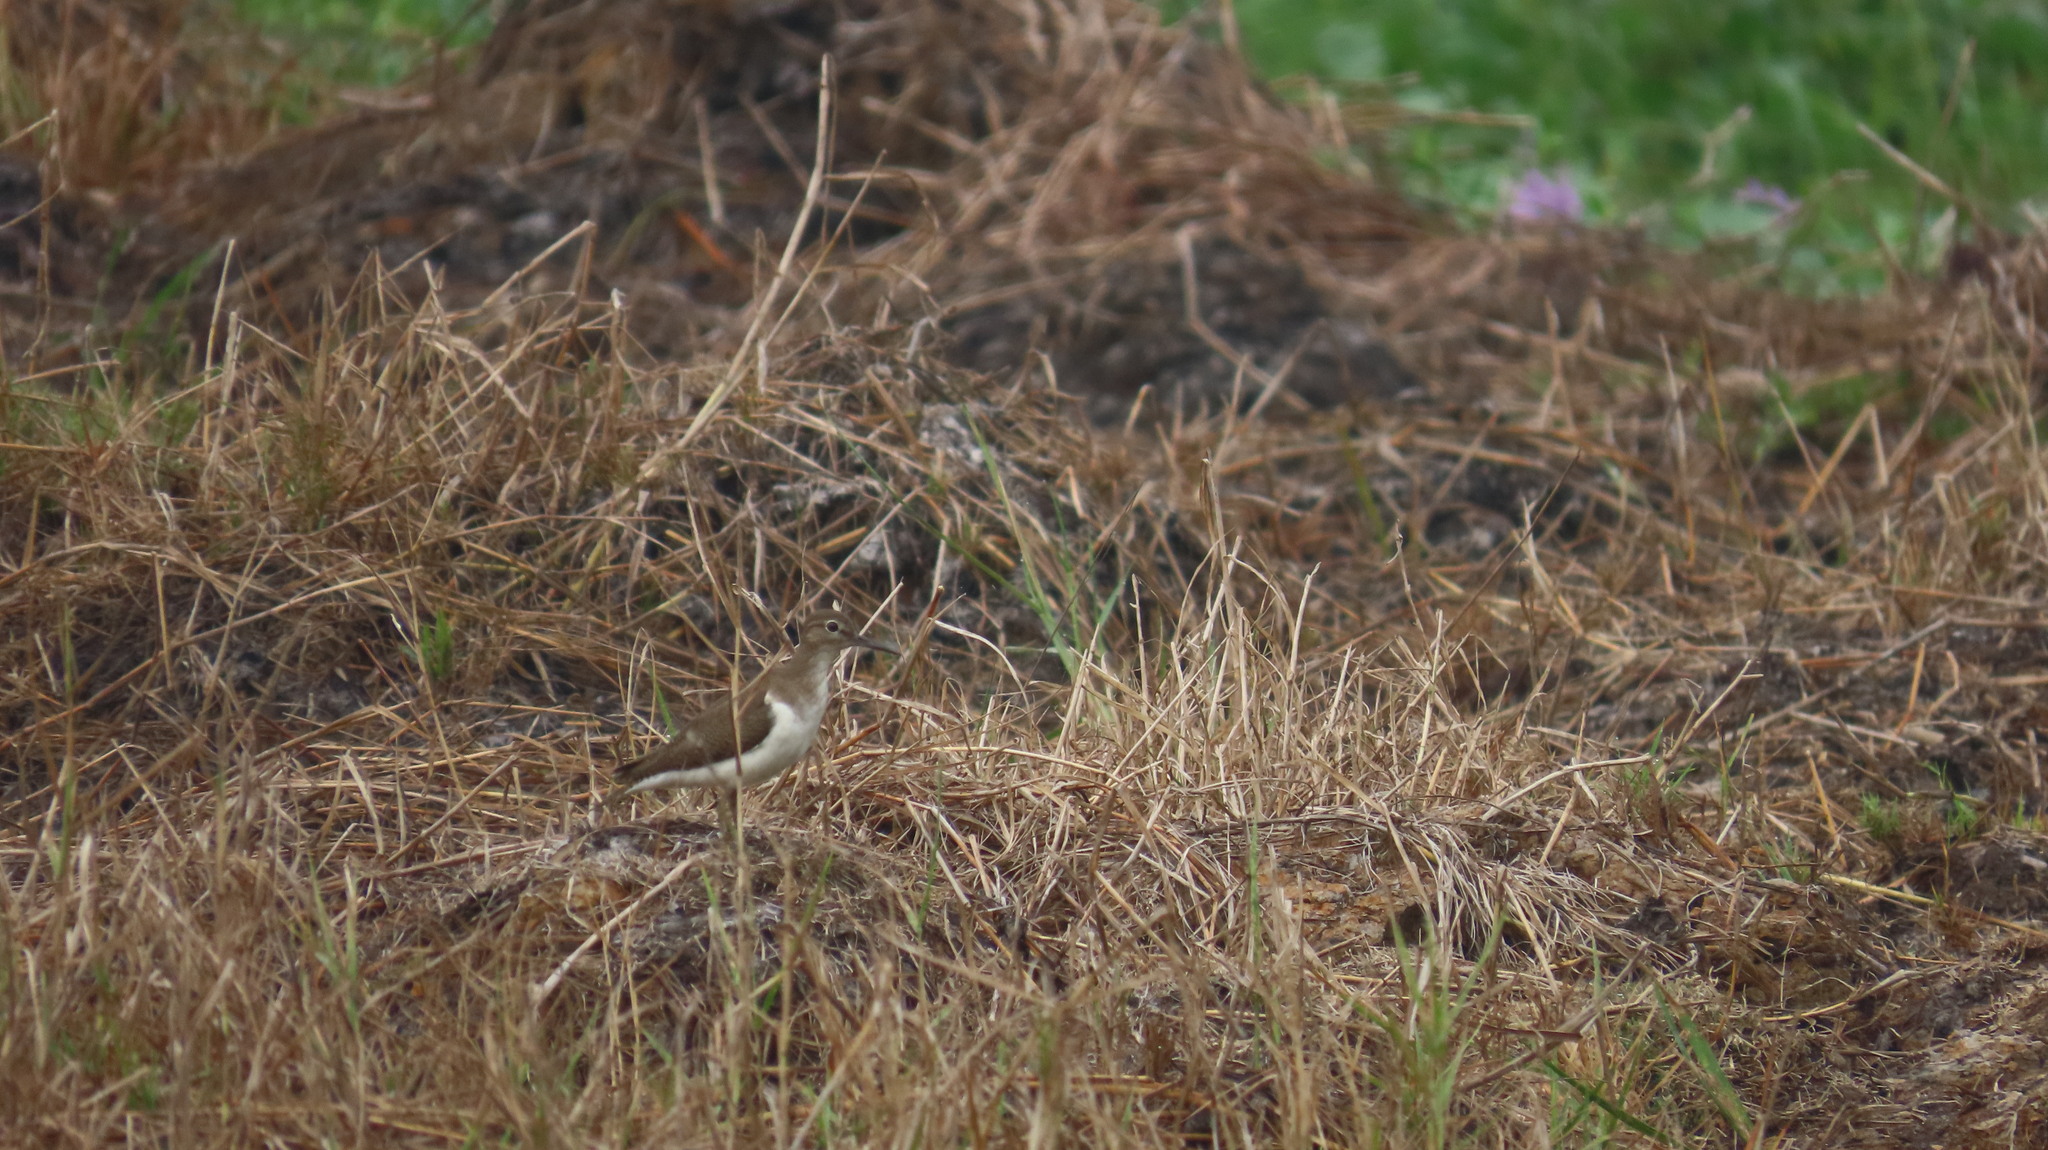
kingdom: Animalia
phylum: Chordata
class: Aves
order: Charadriiformes
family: Scolopacidae
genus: Actitis
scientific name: Actitis hypoleucos
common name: Common sandpiper
